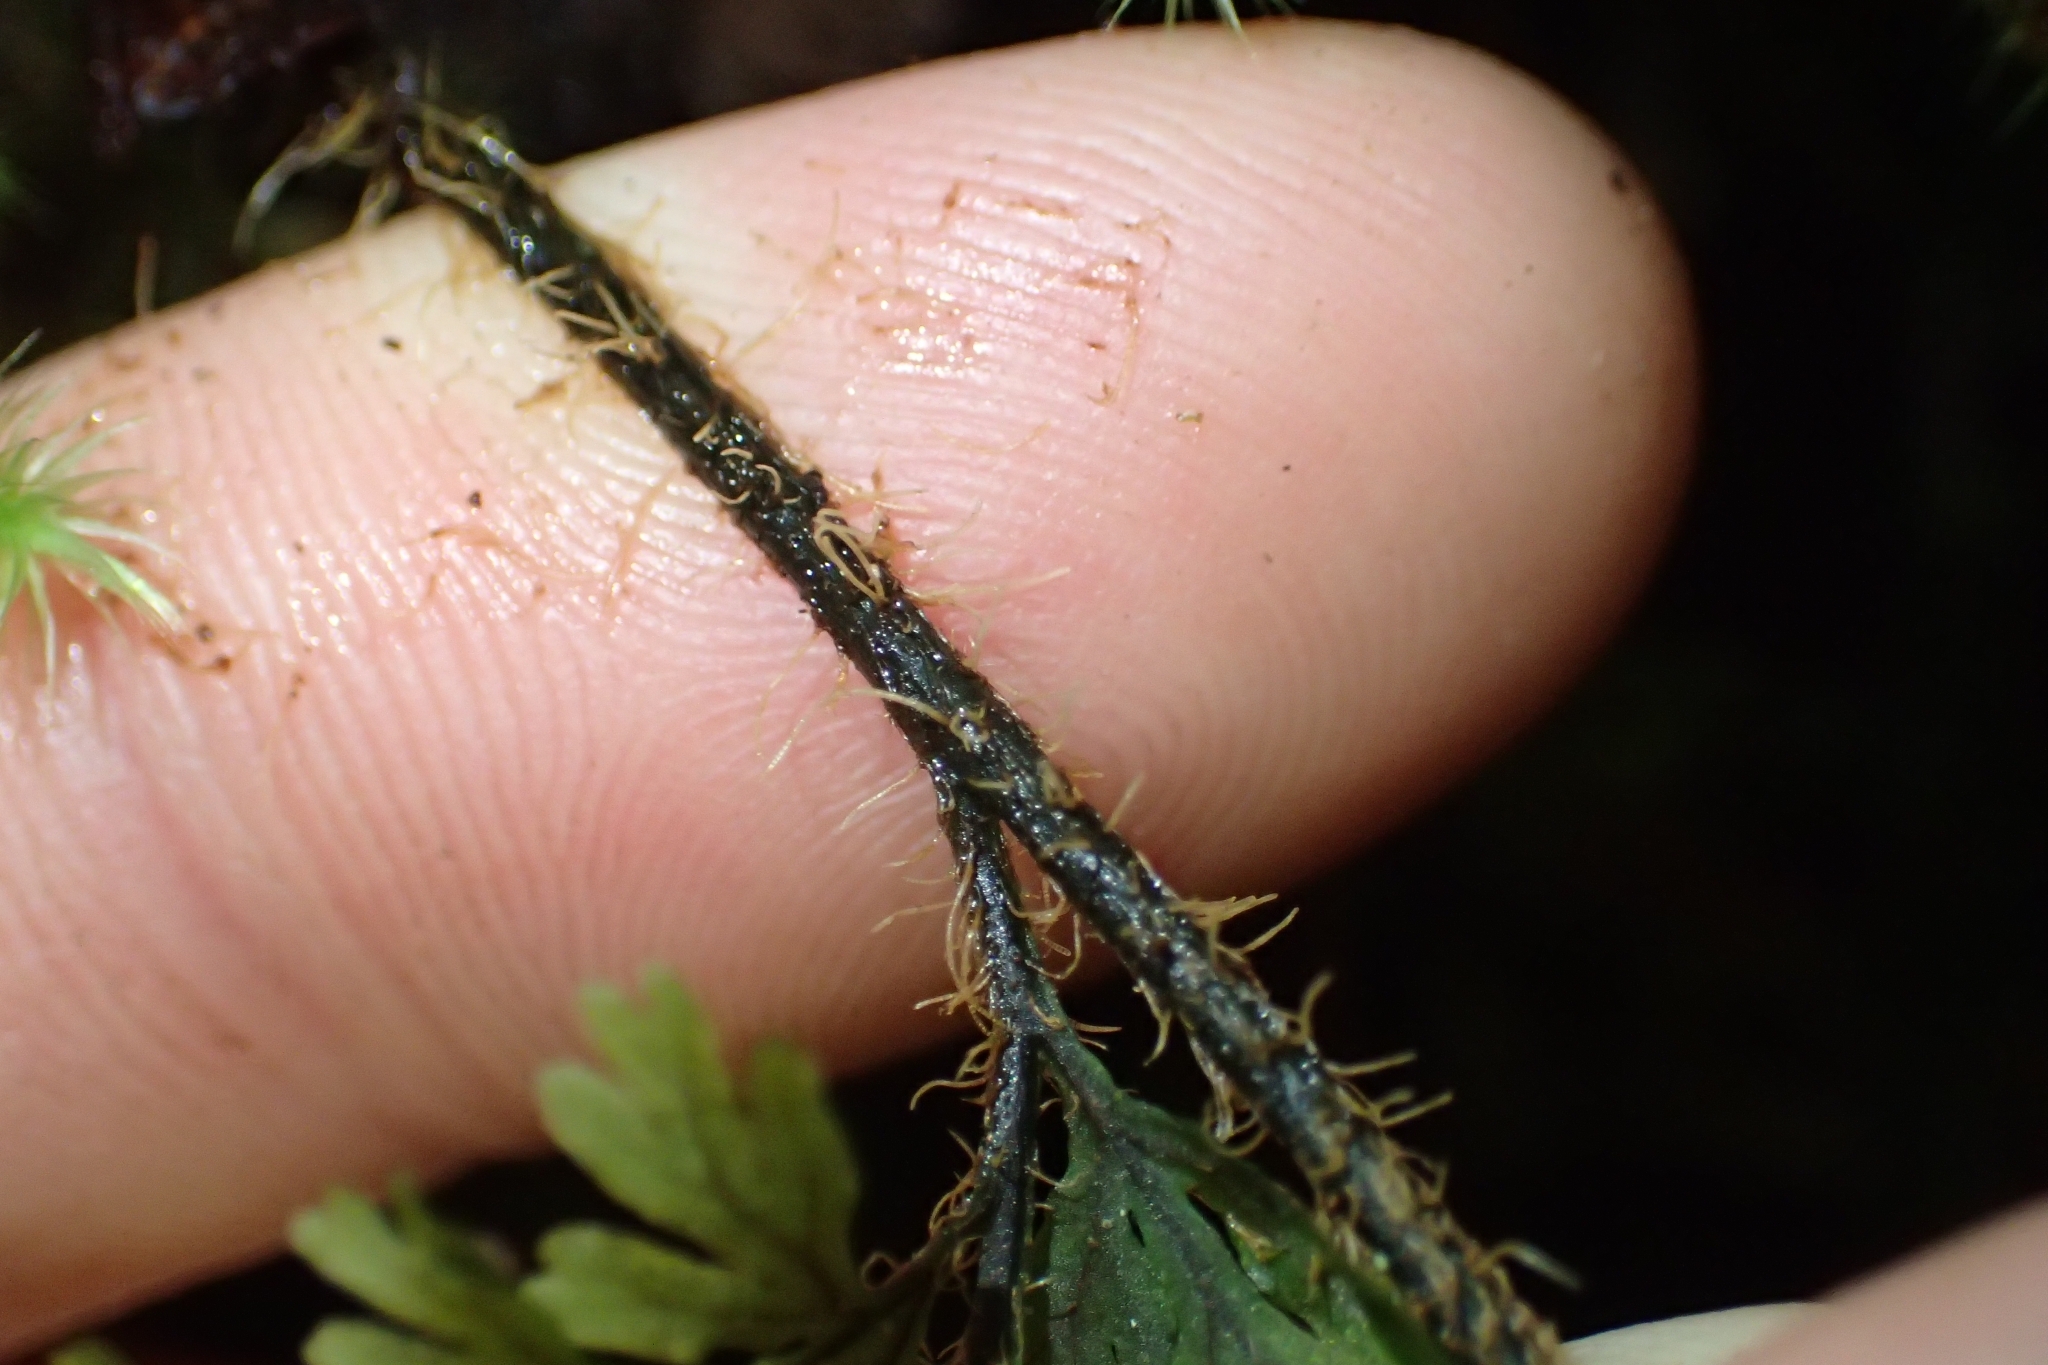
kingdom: Plantae
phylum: Tracheophyta
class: Polypodiopsida
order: Hymenophyllales
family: Hymenophyllaceae
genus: Hymenophyllum
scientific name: Hymenophyllum scabrum
